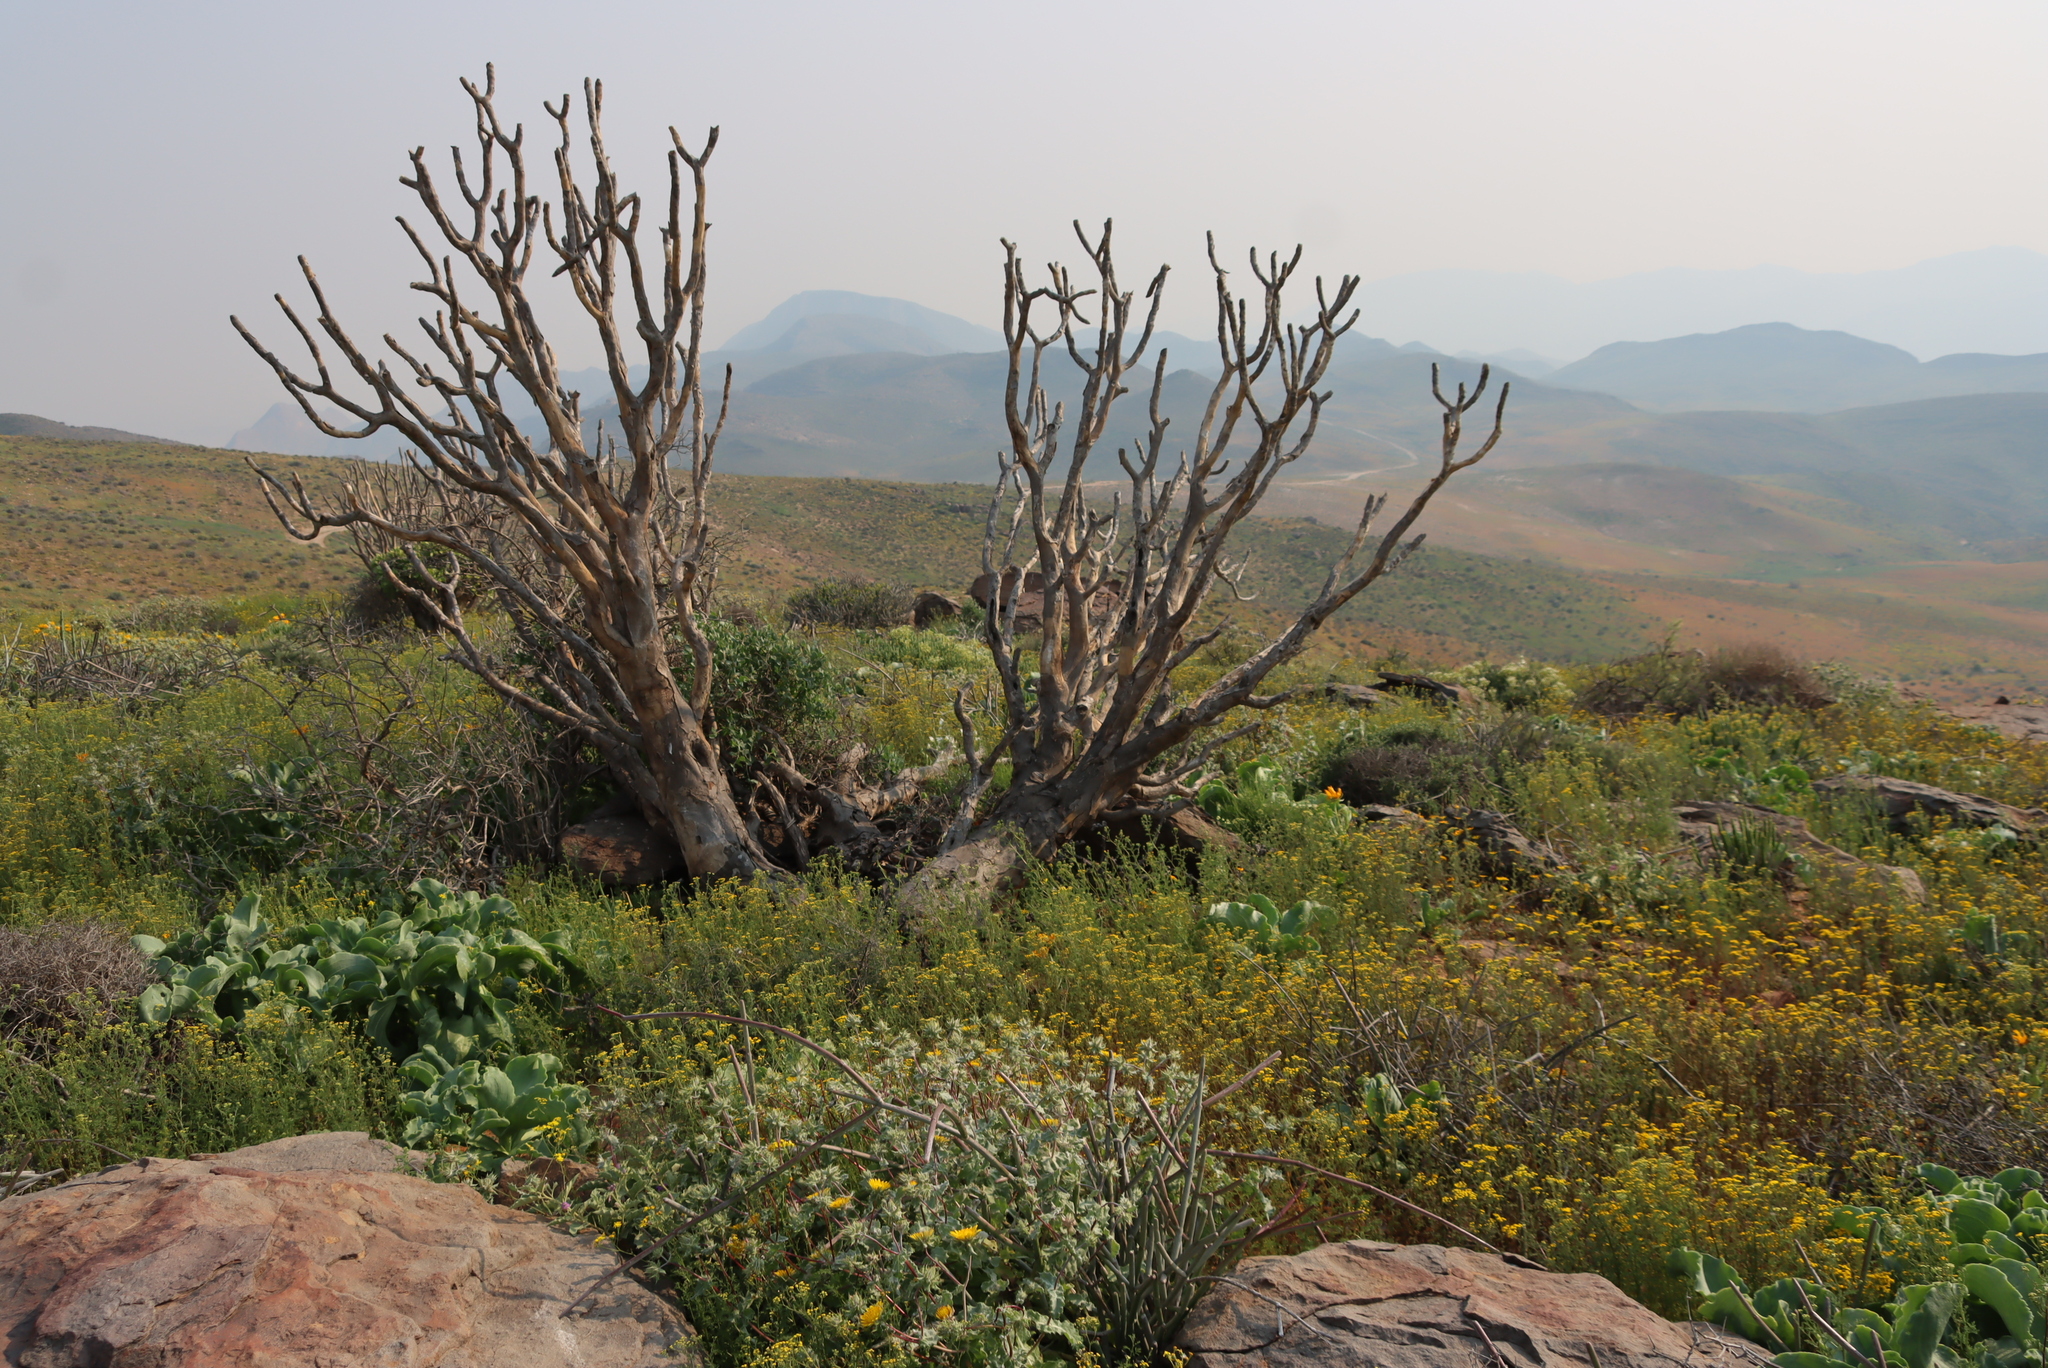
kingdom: Plantae
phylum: Tracheophyta
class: Liliopsida
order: Asparagales
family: Asphodelaceae
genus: Aloidendron
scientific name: Aloidendron ramosissimum
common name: Bush quiver tree
